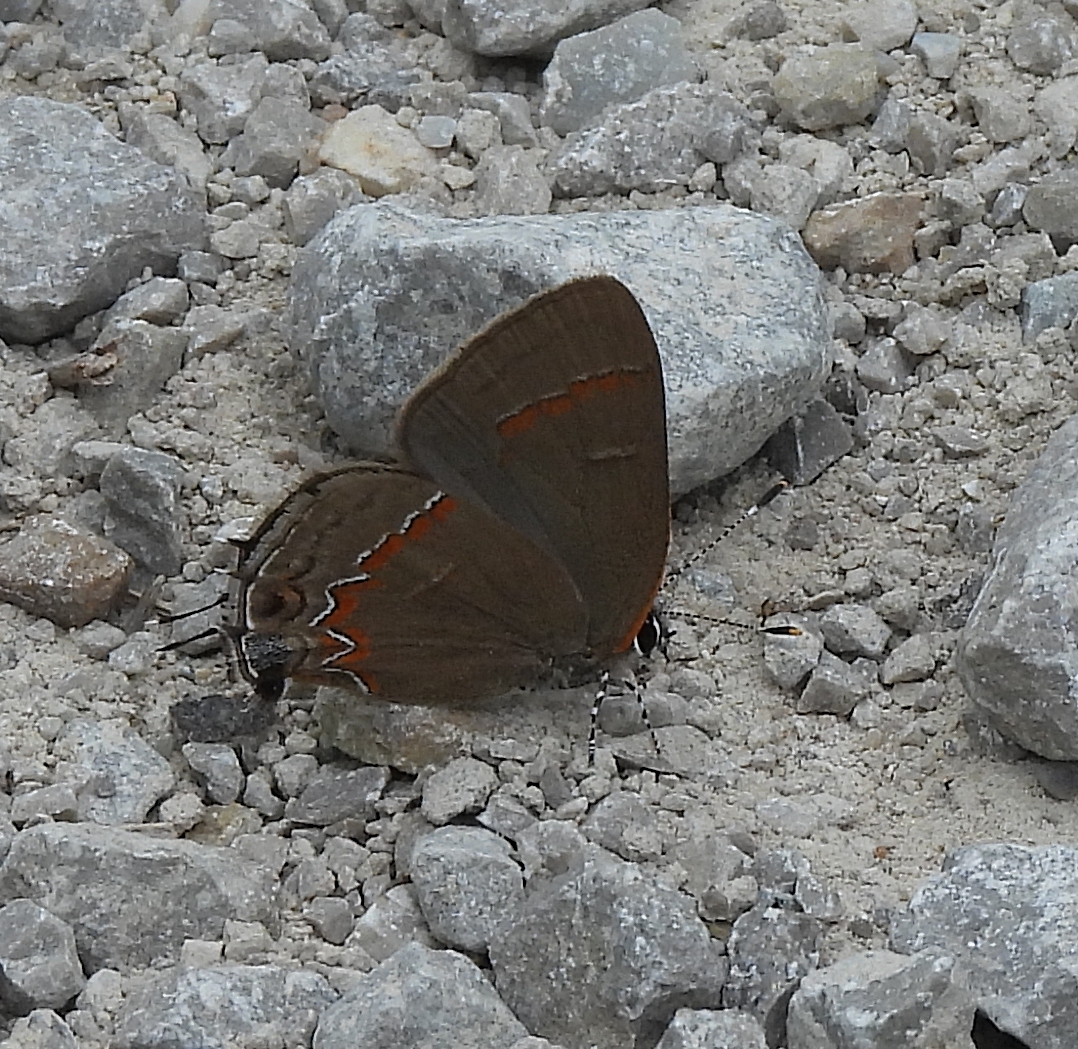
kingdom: Animalia
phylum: Arthropoda
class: Insecta
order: Lepidoptera
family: Lycaenidae
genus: Calycopis
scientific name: Calycopis cecrops
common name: Red-banded hairstreak
